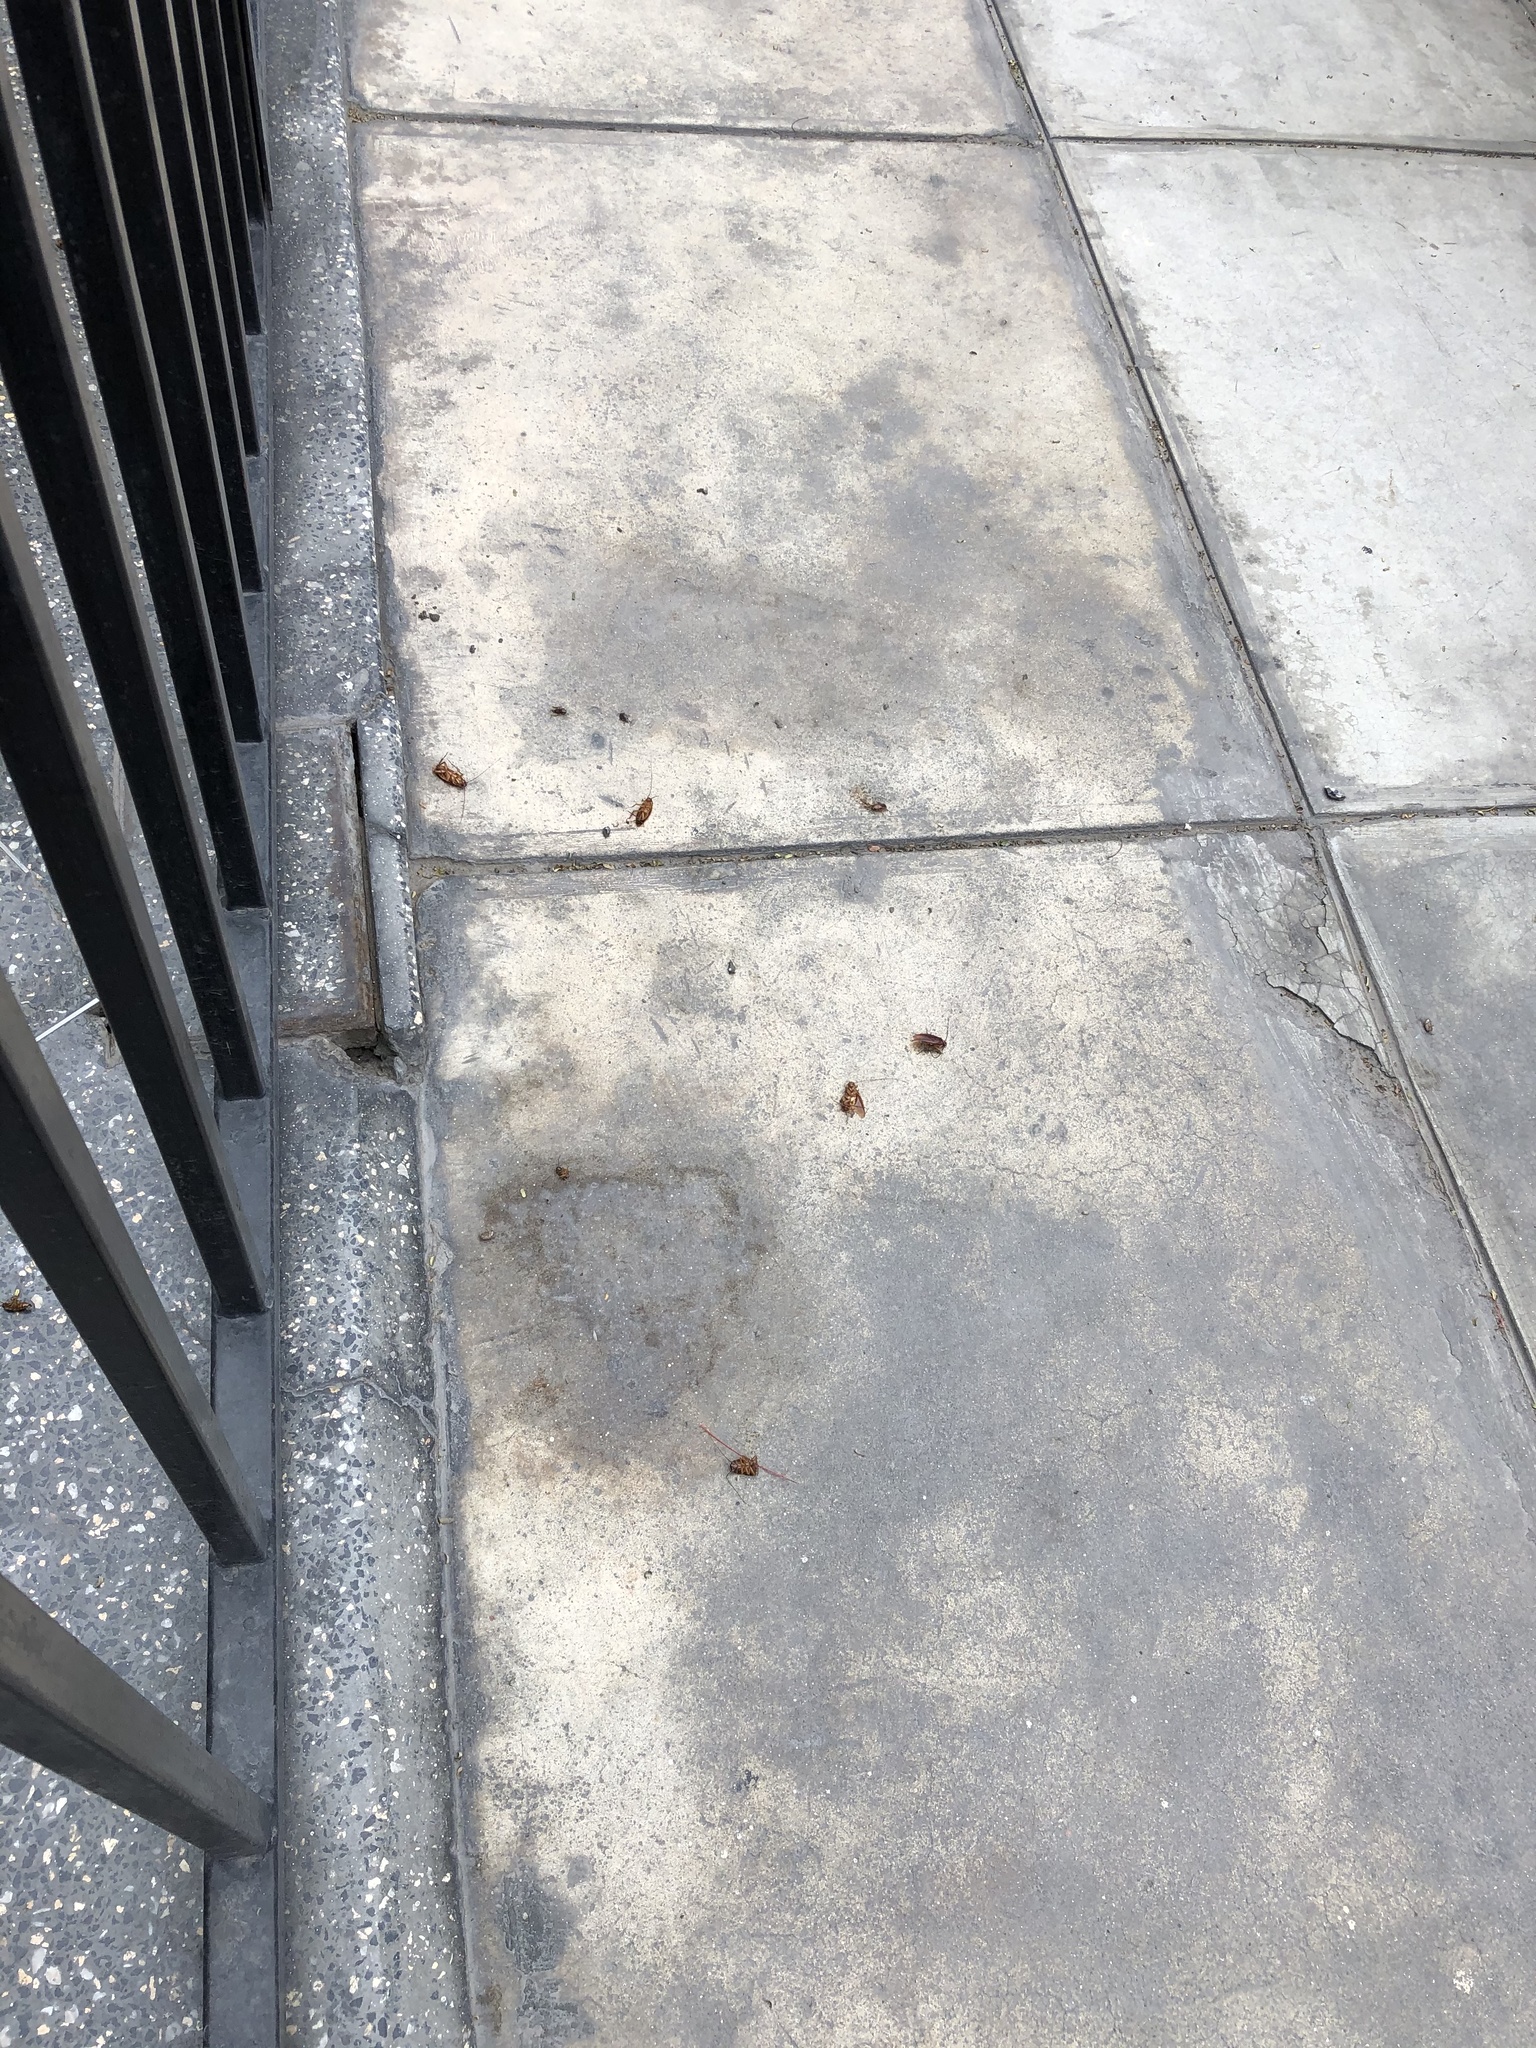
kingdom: Animalia
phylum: Arthropoda
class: Insecta
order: Blattodea
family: Blattidae
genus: Periplaneta
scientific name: Periplaneta americana
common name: American cockroach
